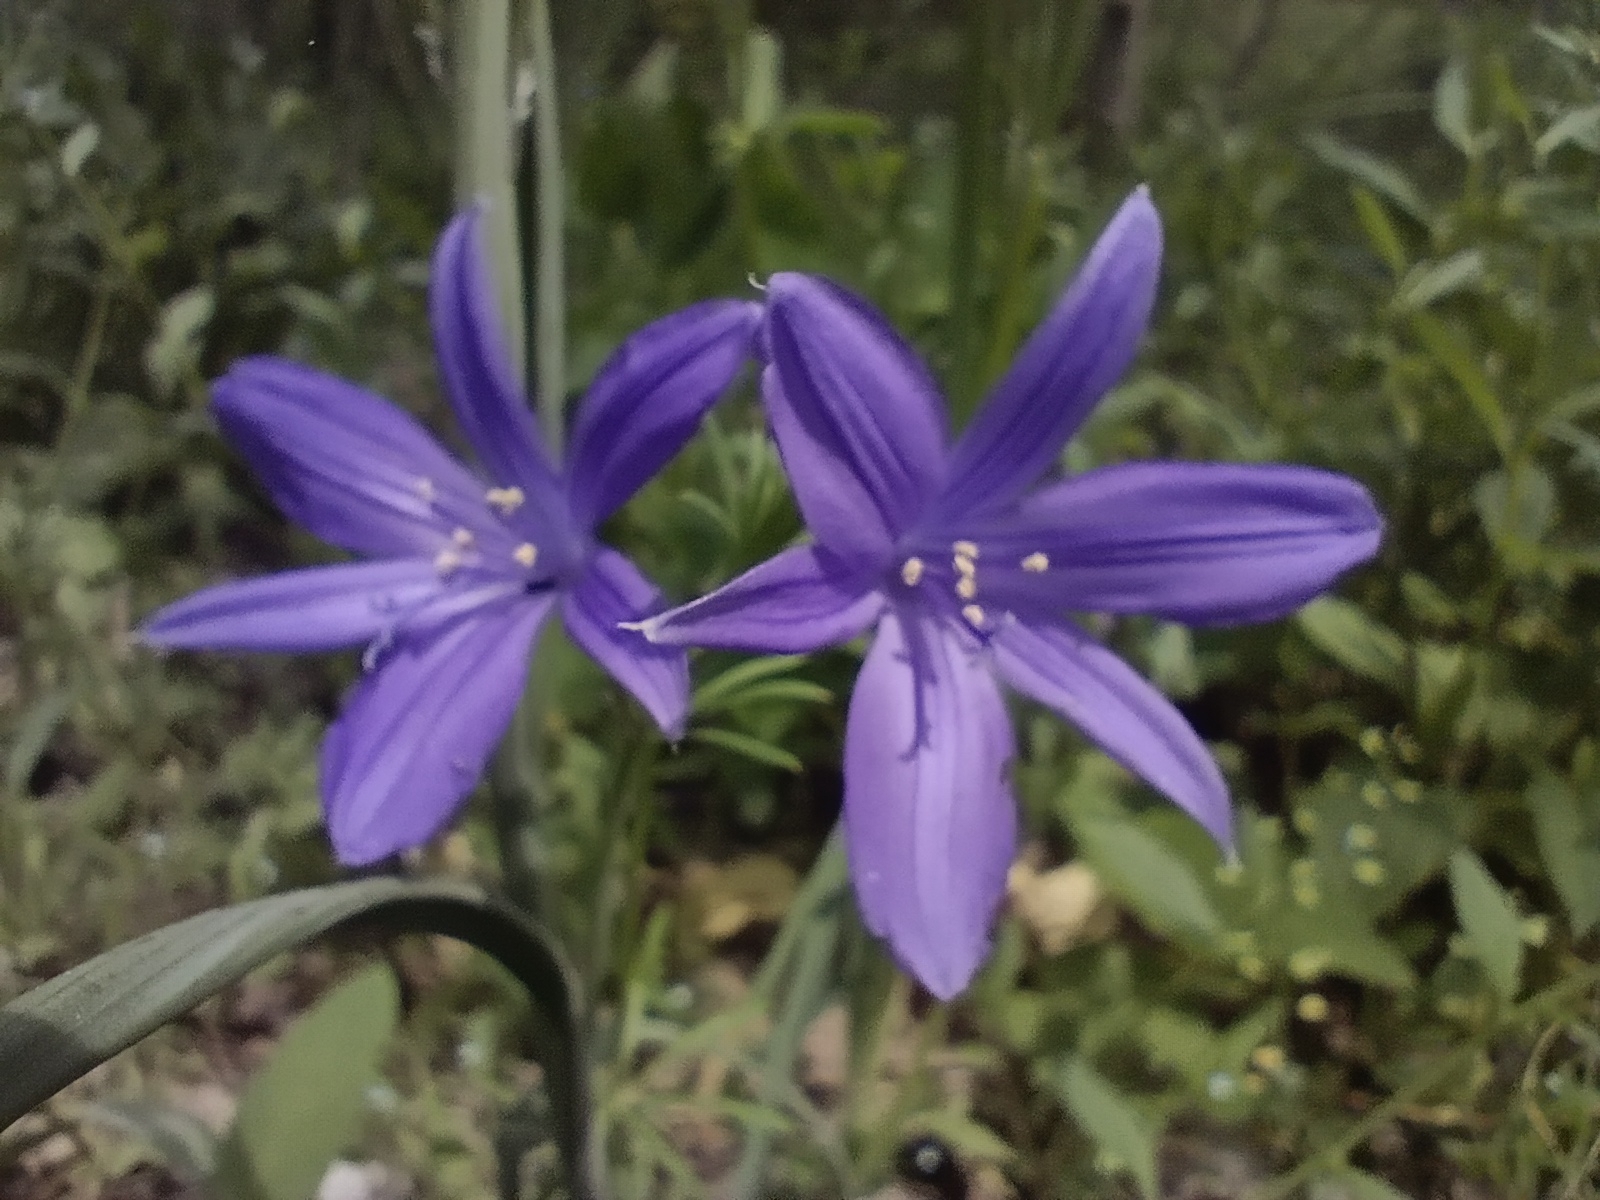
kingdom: Plantae
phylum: Tracheophyta
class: Liliopsida
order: Asparagales
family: Ixioliriaceae
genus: Ixiolirion
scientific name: Ixiolirion tataricum
